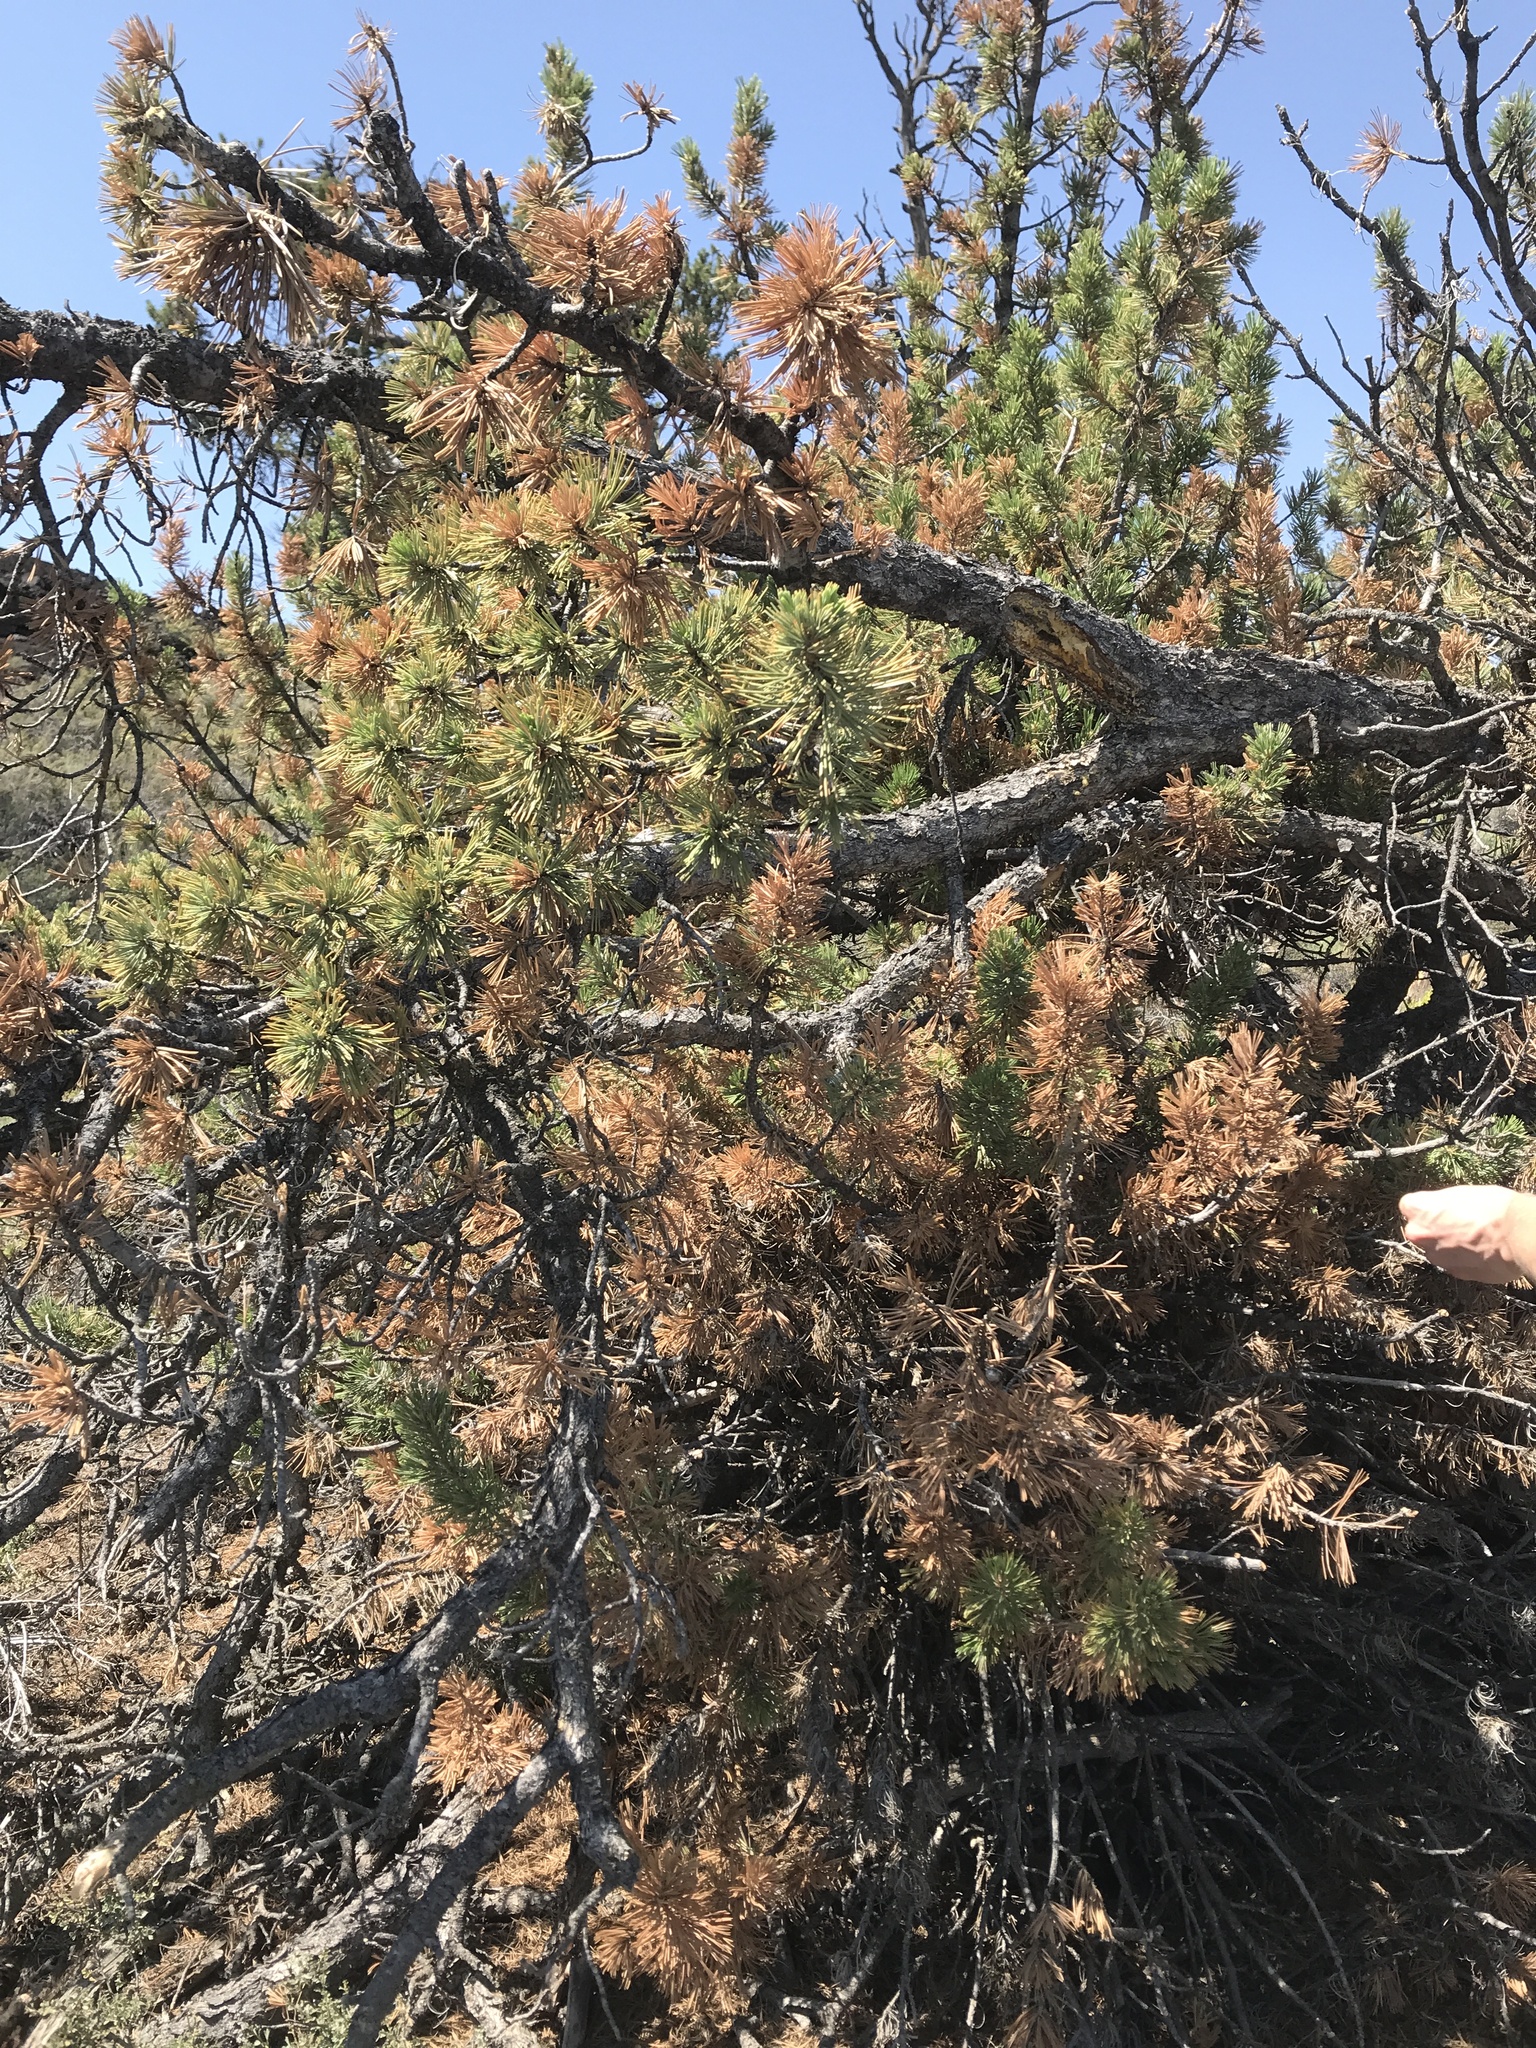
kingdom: Plantae
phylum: Tracheophyta
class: Pinopsida
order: Pinales
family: Pinaceae
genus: Pinus
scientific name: Pinus flexilis
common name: Limber pine
